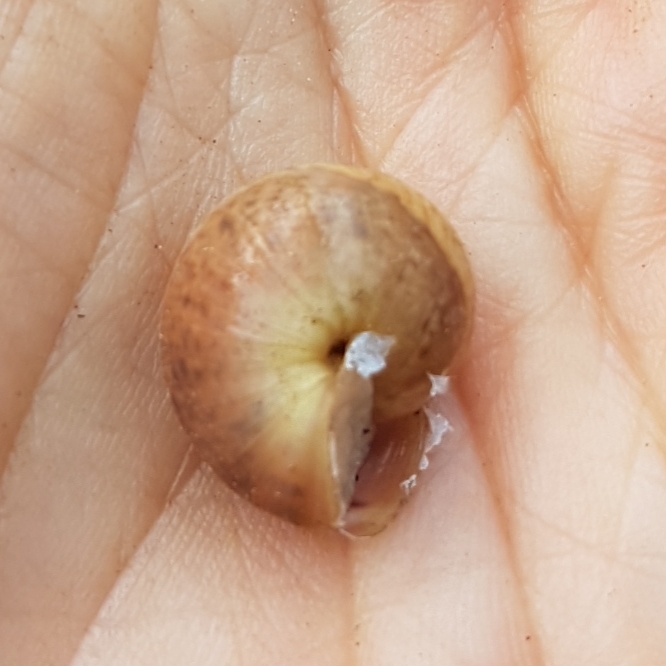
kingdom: Animalia
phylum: Mollusca
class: Gastropoda
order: Stylommatophora
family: Hygromiidae
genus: Portugala
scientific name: Portugala inchoata
